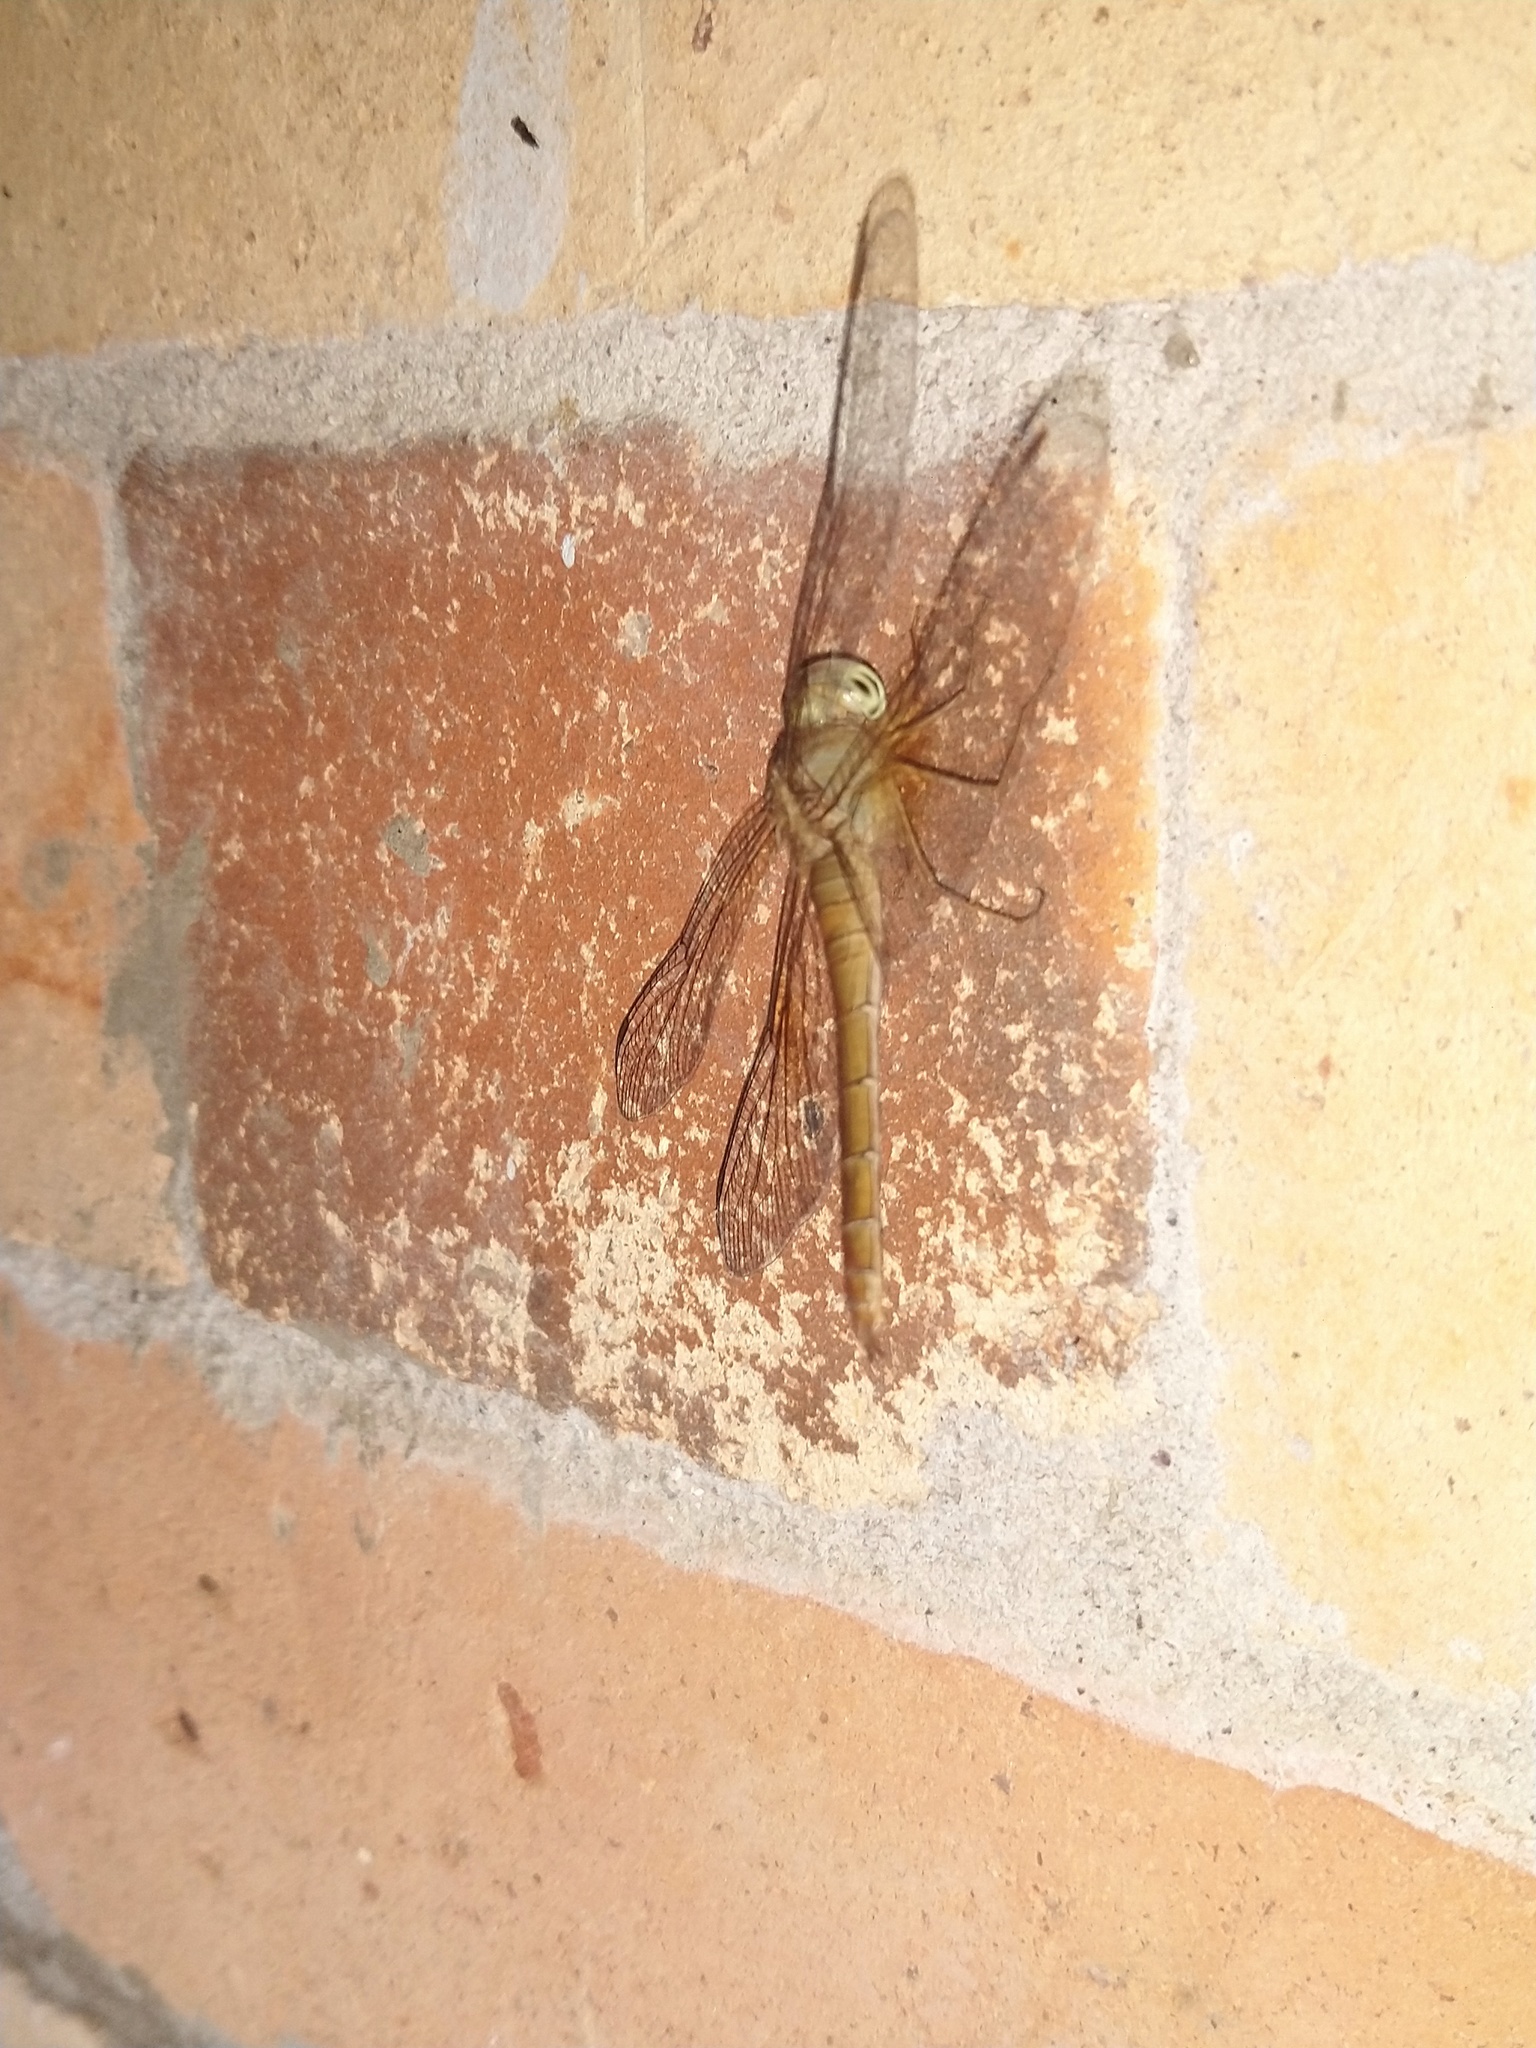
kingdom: Animalia
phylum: Arthropoda
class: Insecta
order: Odonata
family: Libellulidae
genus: Tholymis
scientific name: Tholymis tillarga
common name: Coral-tailed cloud wing
